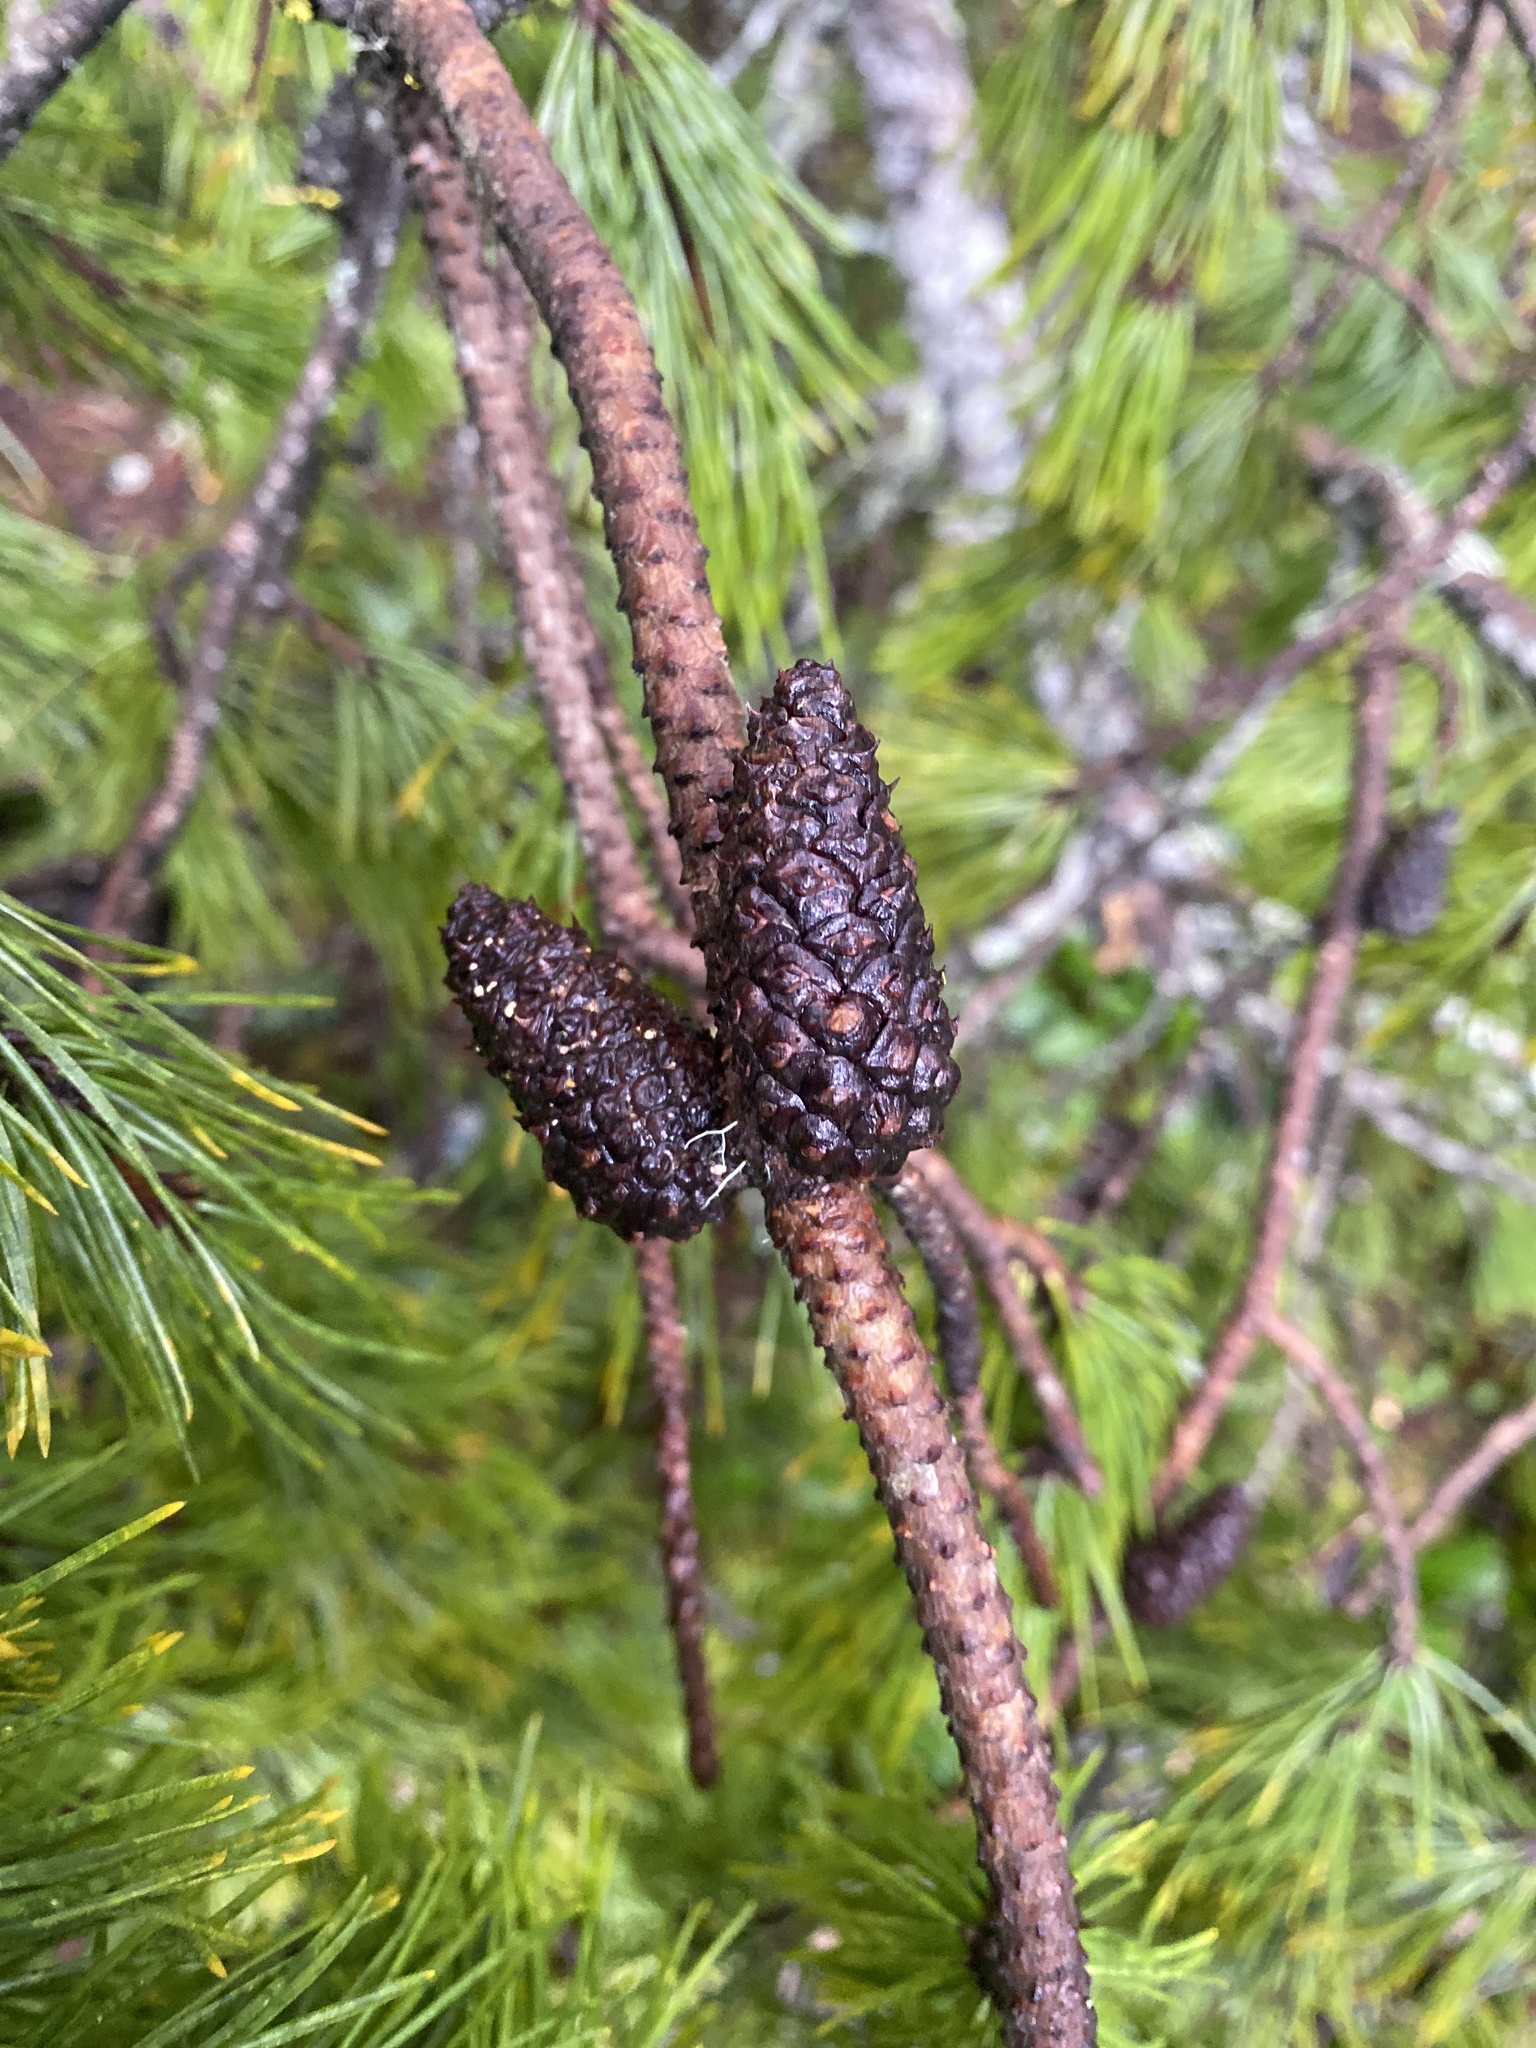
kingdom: Plantae
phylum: Tracheophyta
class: Pinopsida
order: Pinales
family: Pinaceae
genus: Pinus
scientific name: Pinus contorta
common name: Lodgepole pine
